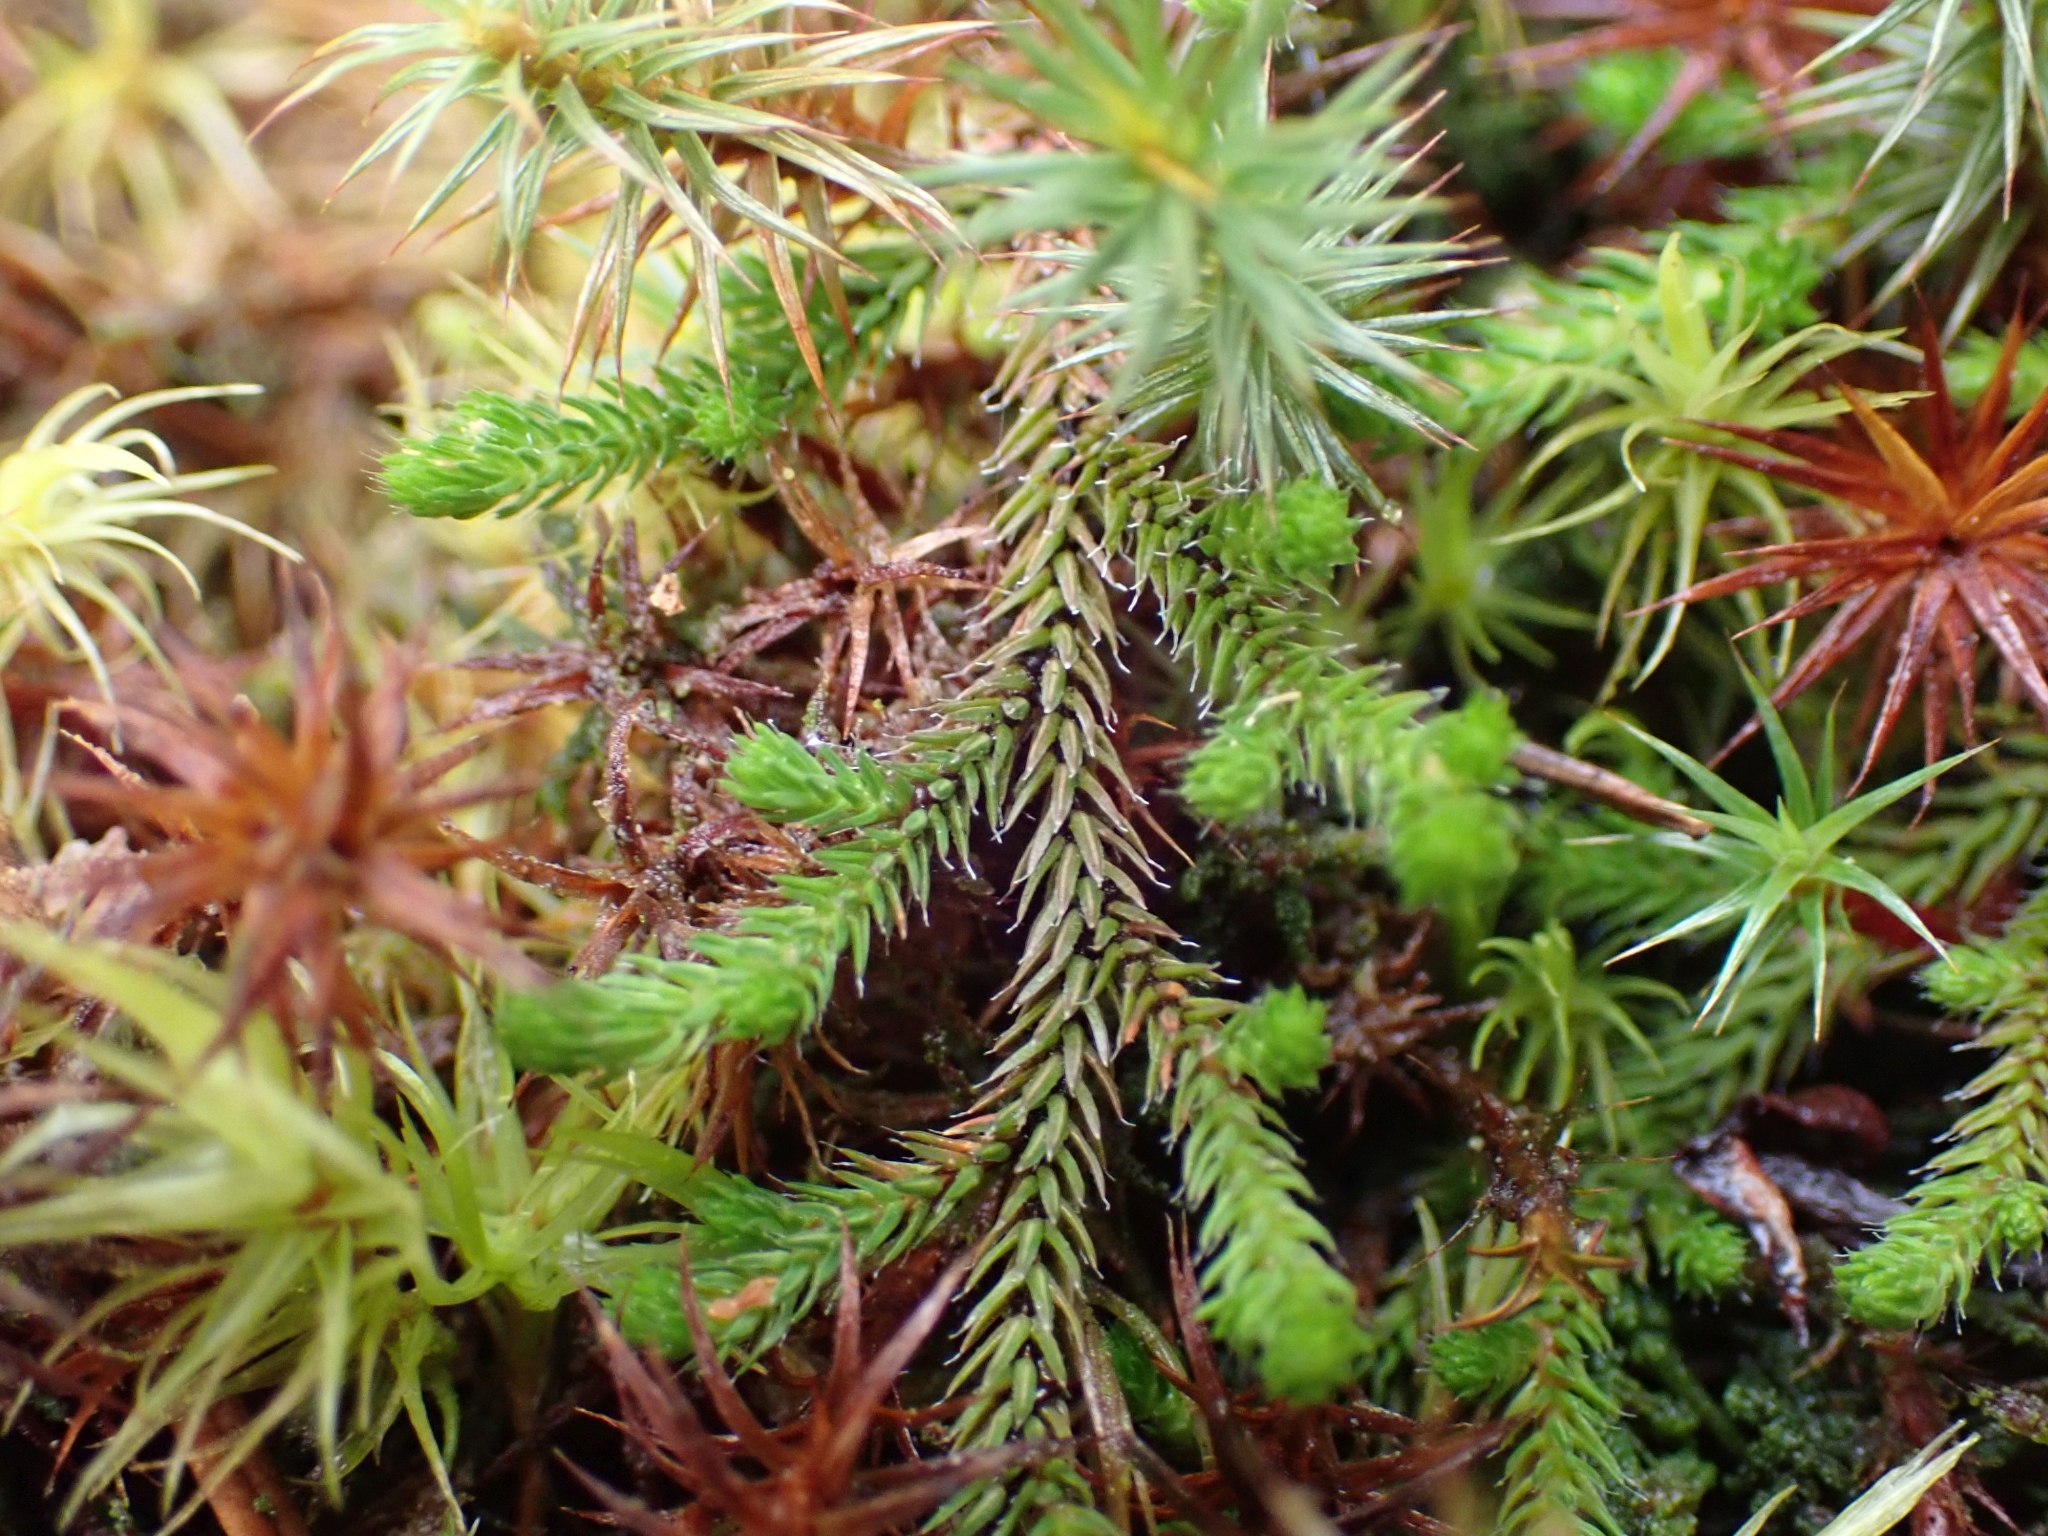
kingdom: Plantae
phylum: Tracheophyta
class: Lycopodiopsida
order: Selaginellales
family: Selaginellaceae
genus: Selaginella
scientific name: Selaginella wallacei
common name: Wallace's selaginella
